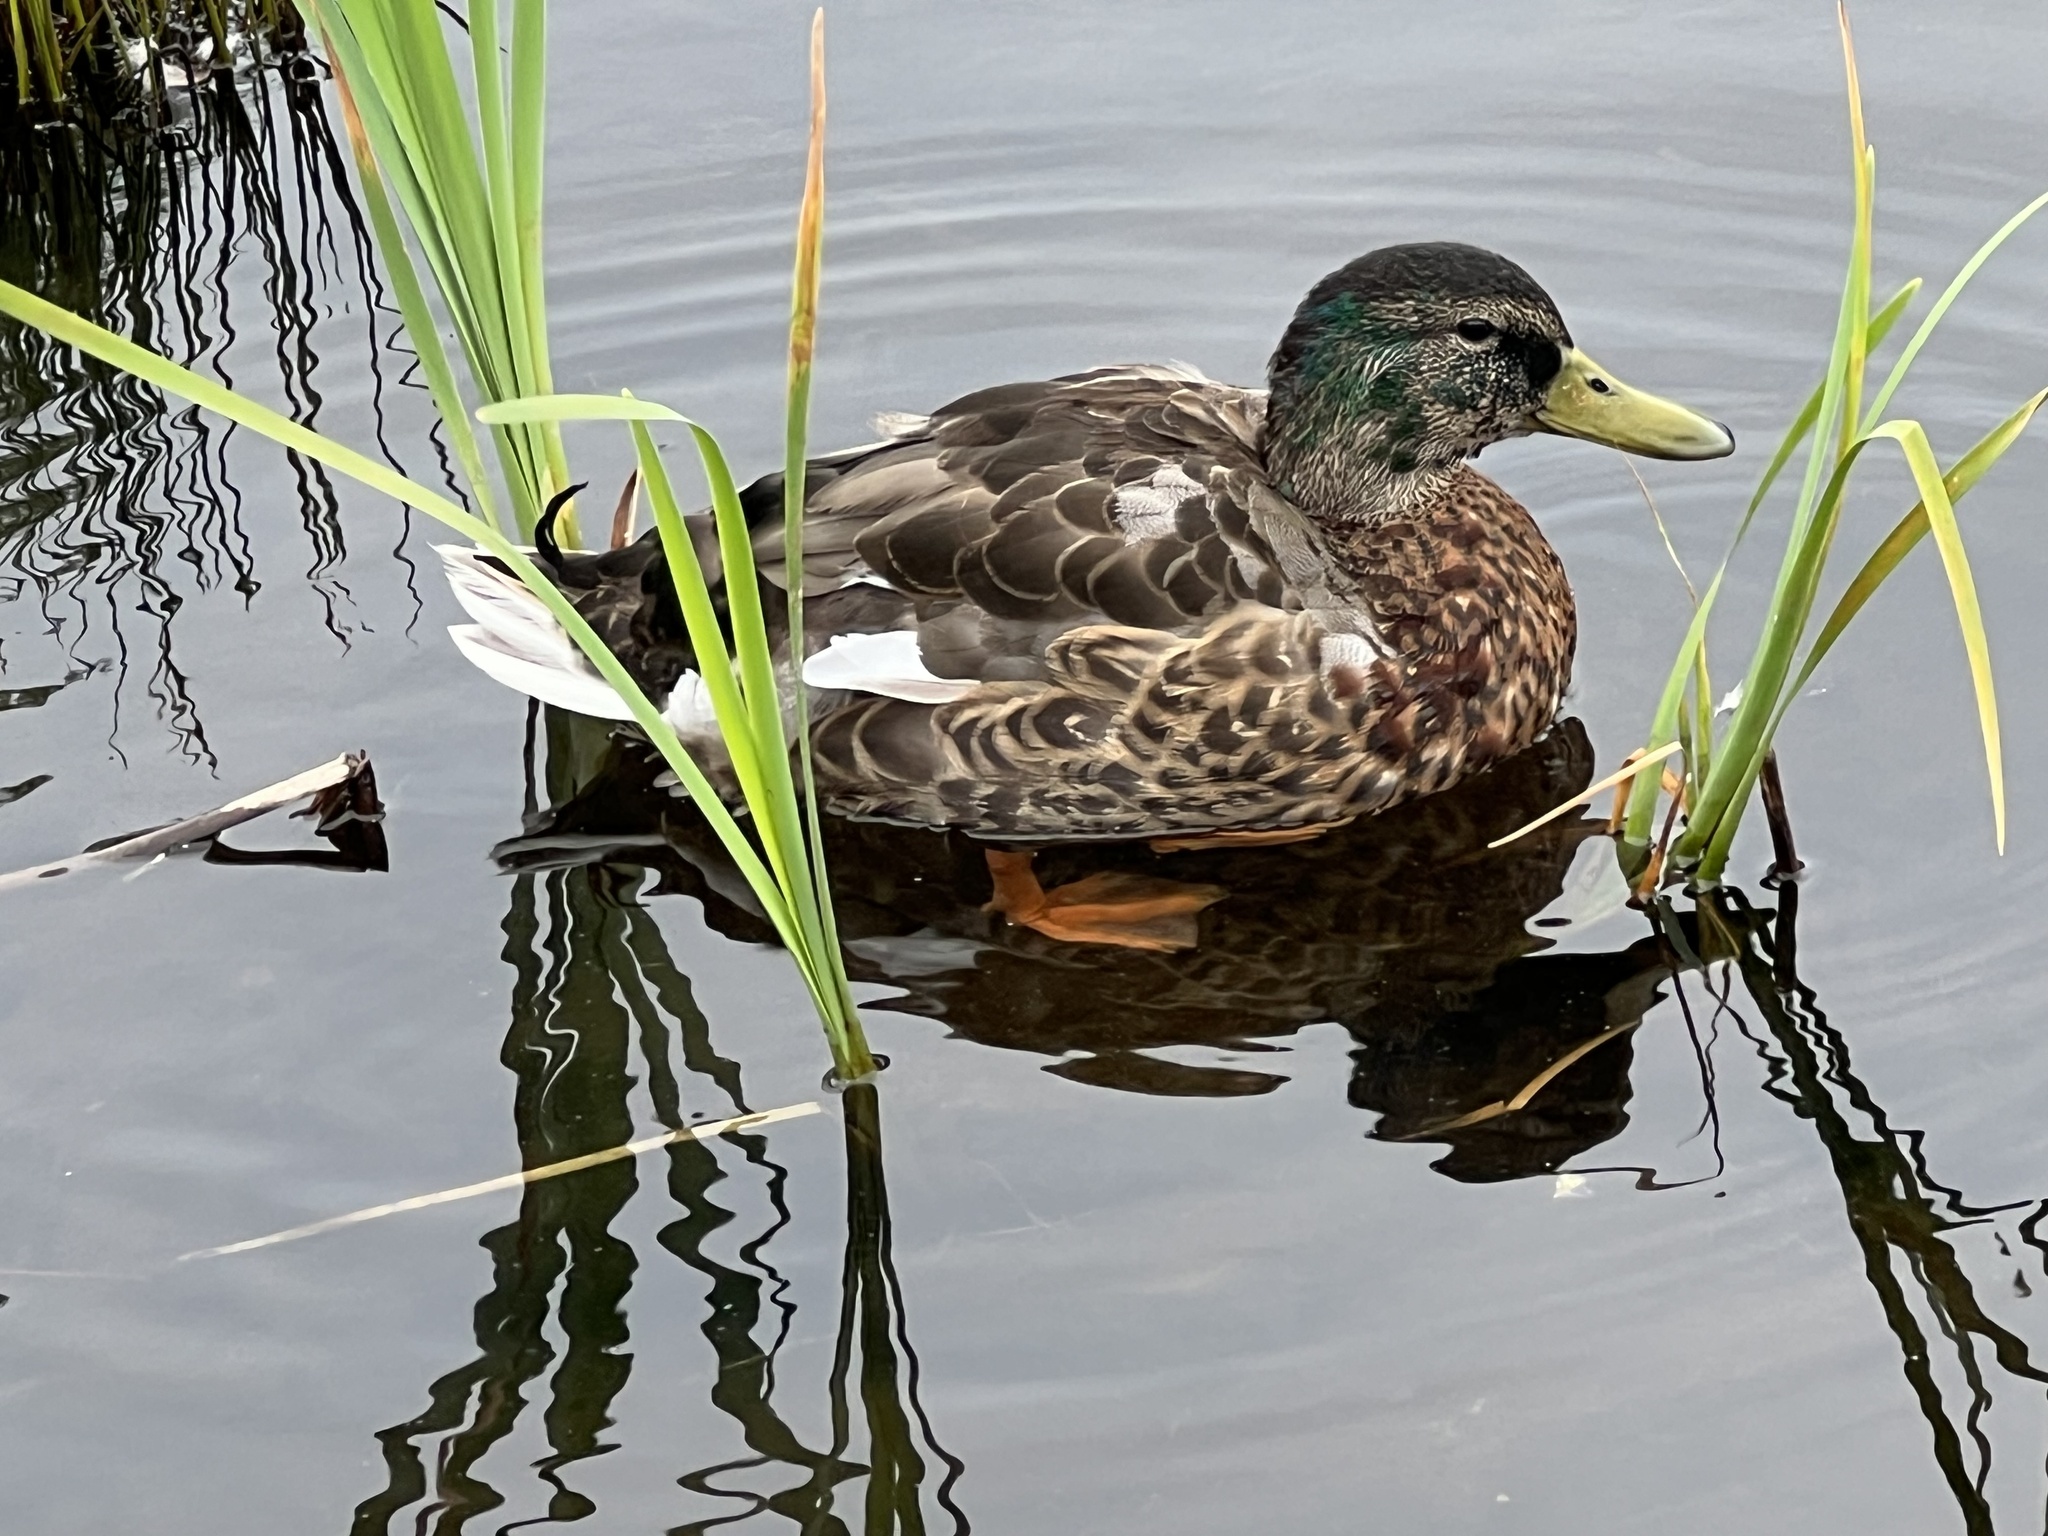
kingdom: Animalia
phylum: Chordata
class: Aves
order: Anseriformes
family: Anatidae
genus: Anas
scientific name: Anas platyrhynchos
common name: Mallard
